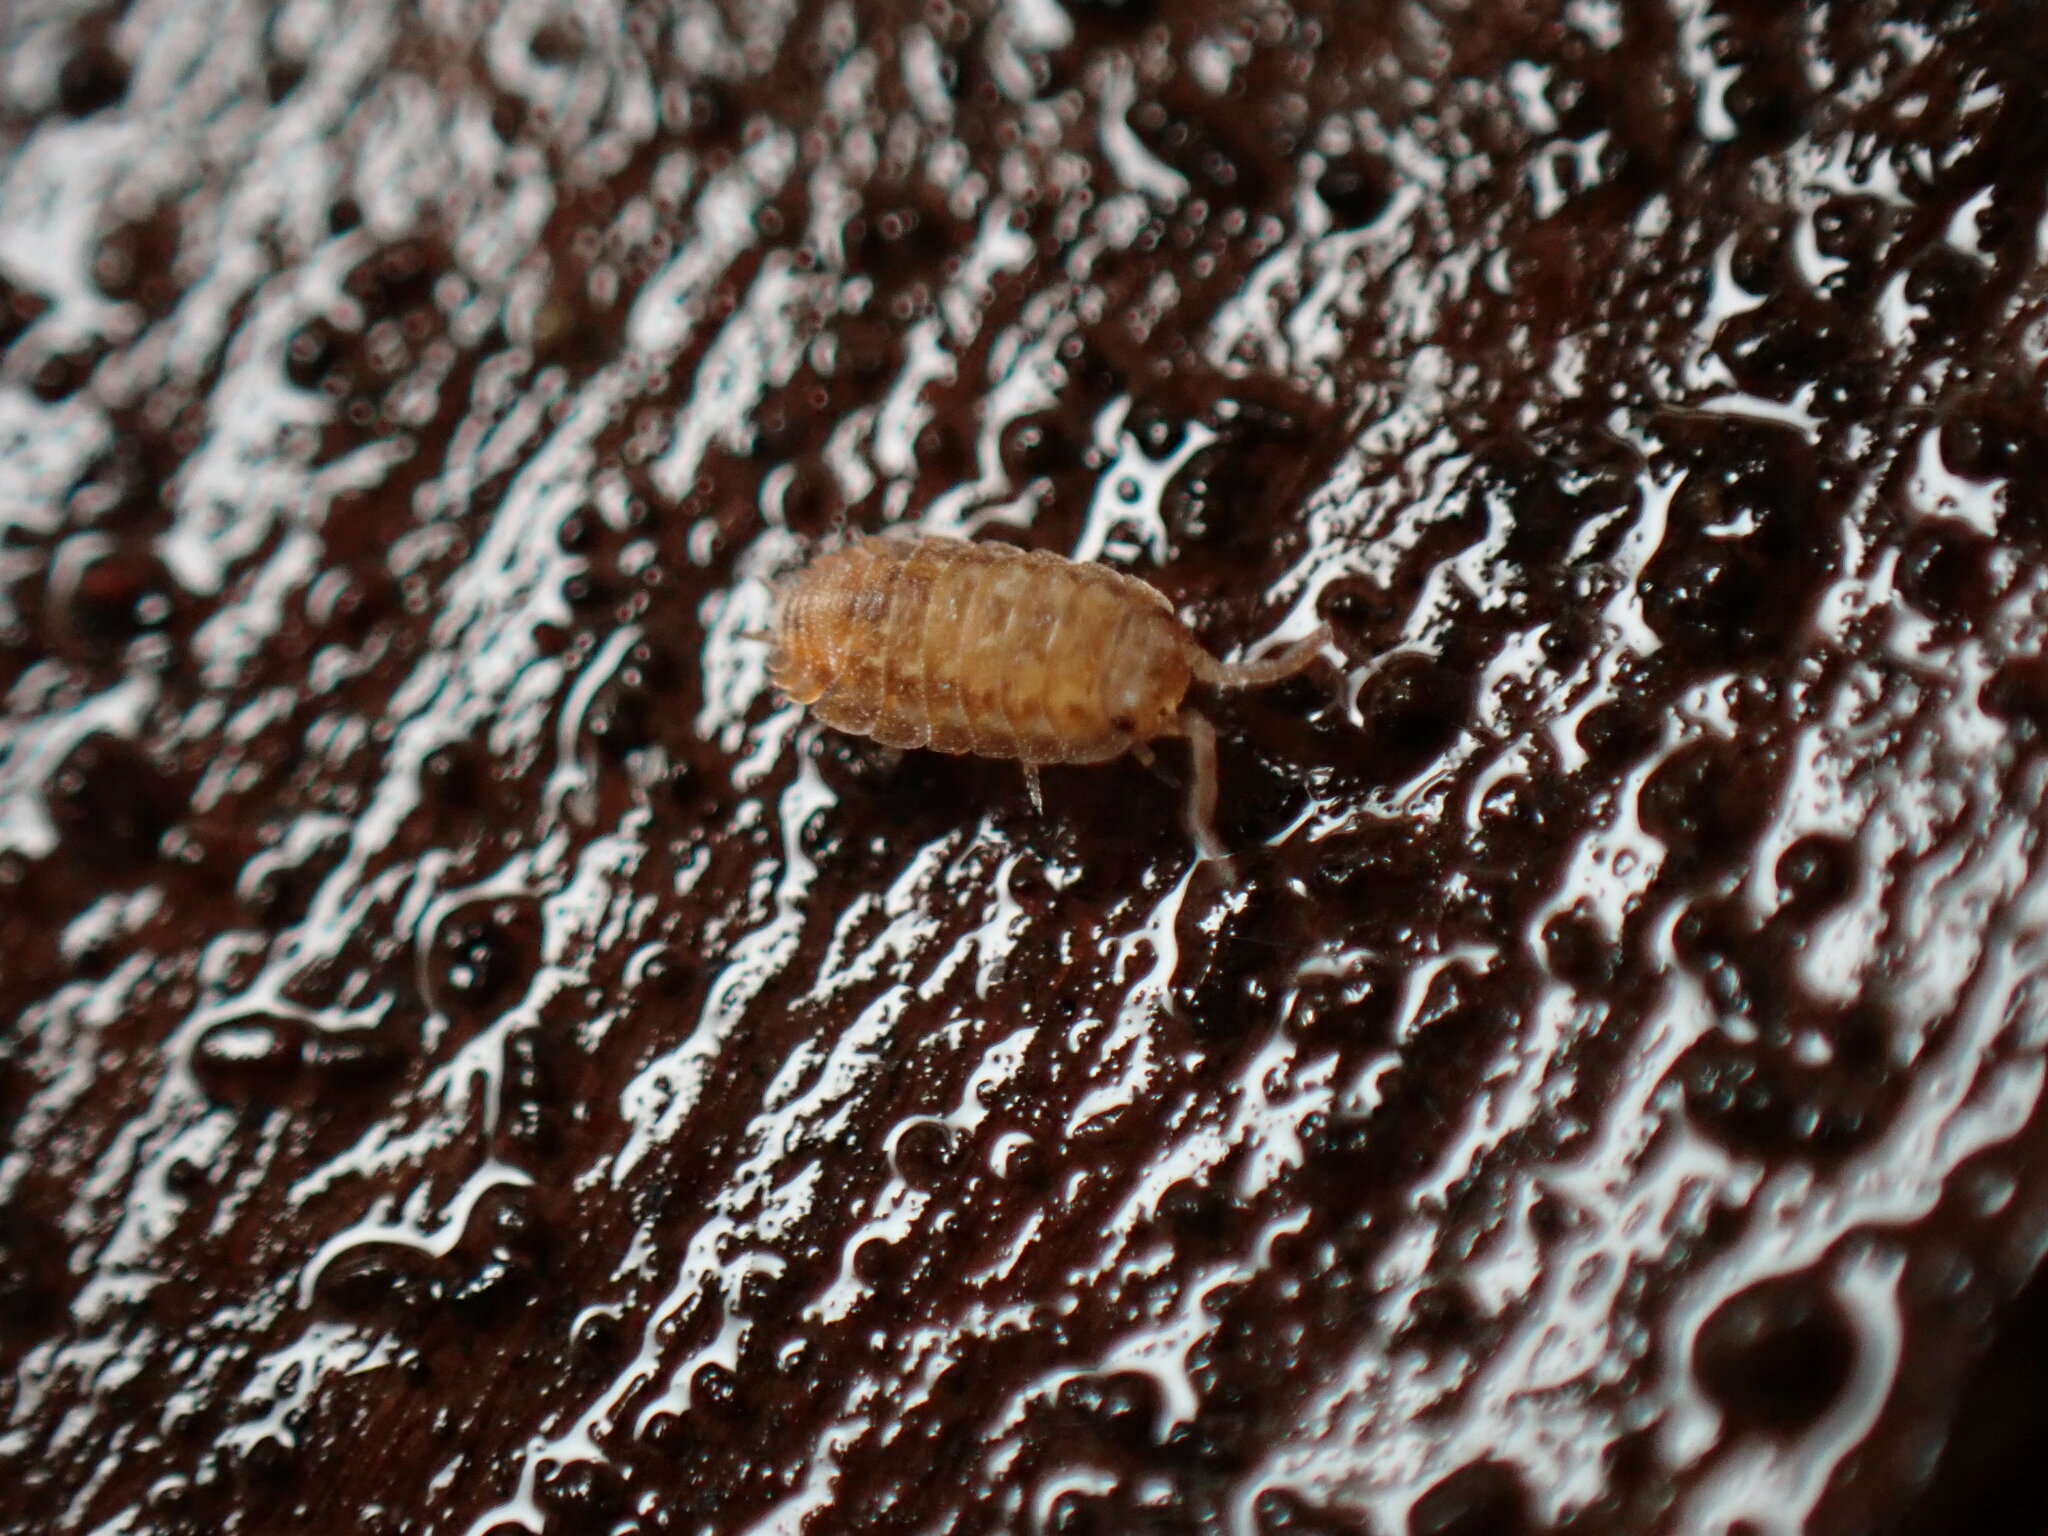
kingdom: Animalia
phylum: Arthropoda
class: Malacostraca
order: Isopoda
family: Oniscidae
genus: Oniscus
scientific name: Oniscus asellus
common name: Common shiny woodlouse
